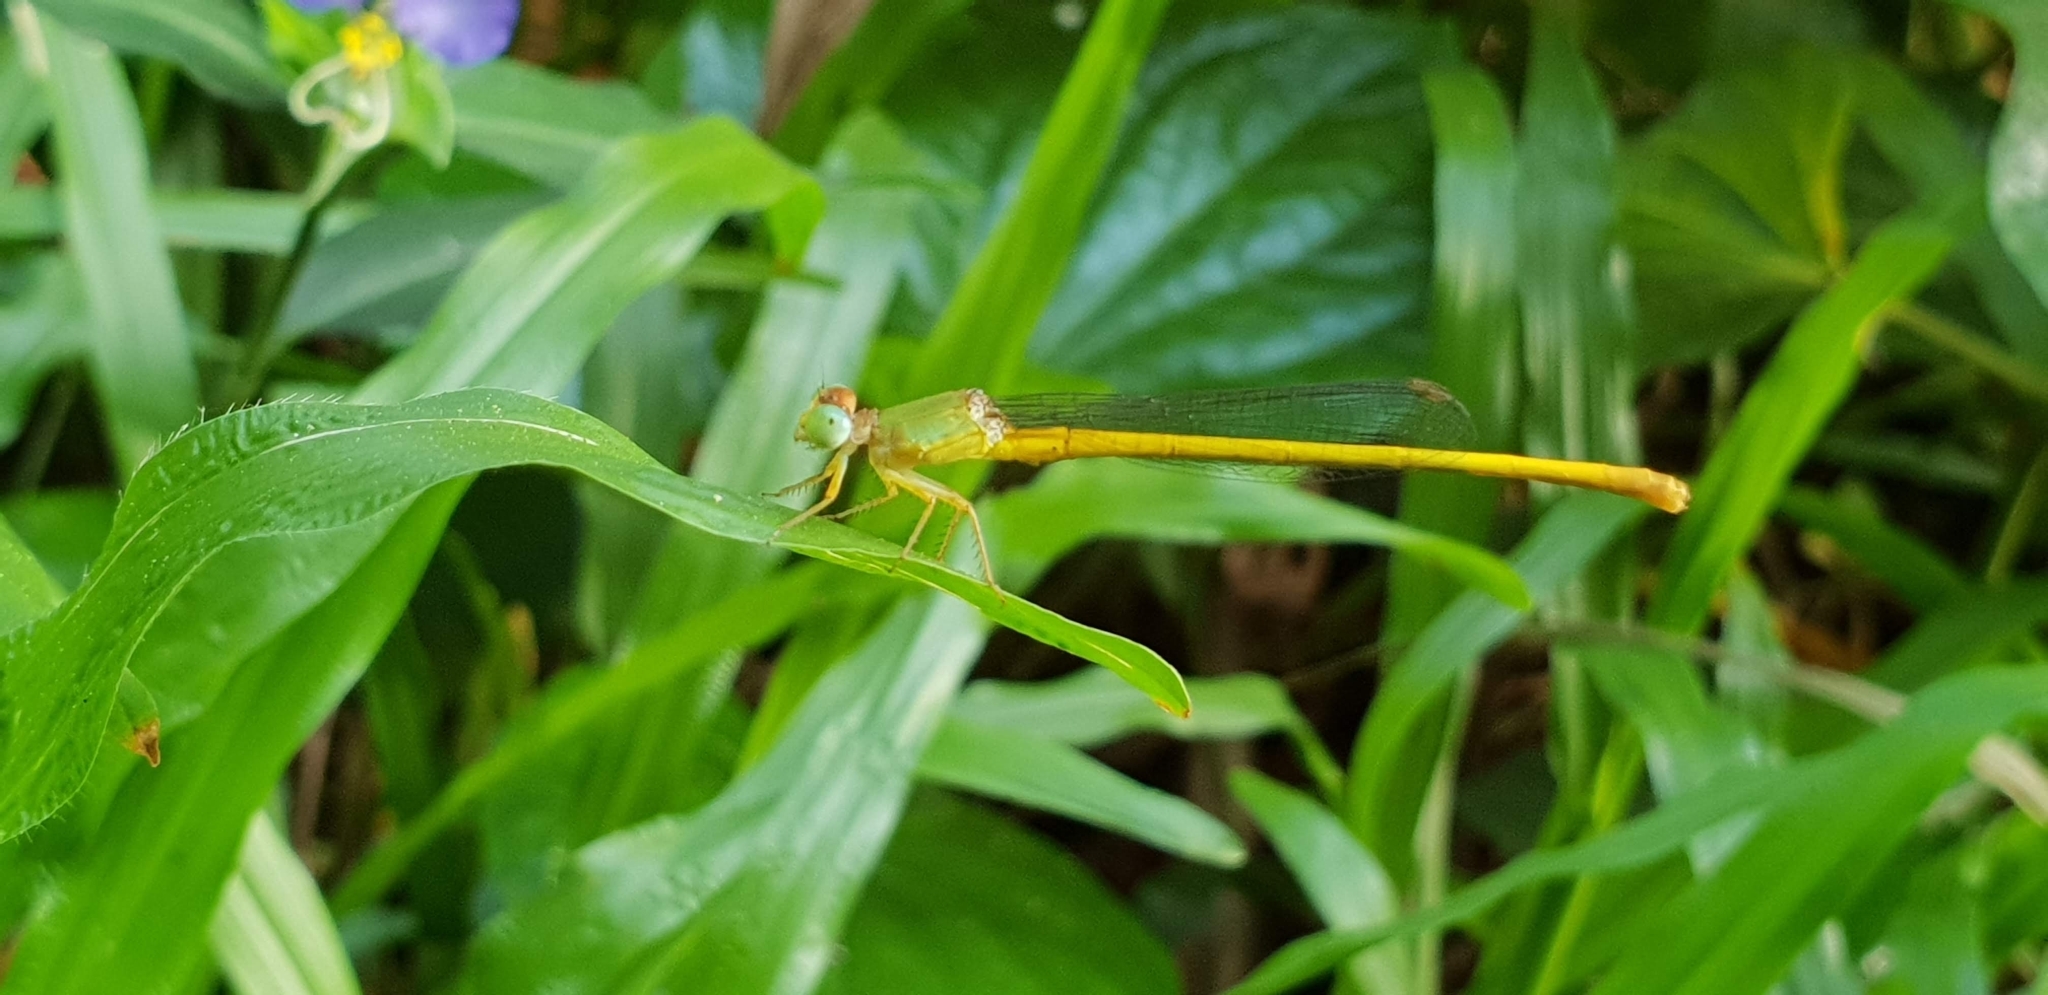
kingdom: Animalia
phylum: Arthropoda
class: Insecta
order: Odonata
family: Coenagrionidae
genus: Ceriagrion
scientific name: Ceriagrion coromandelianum
